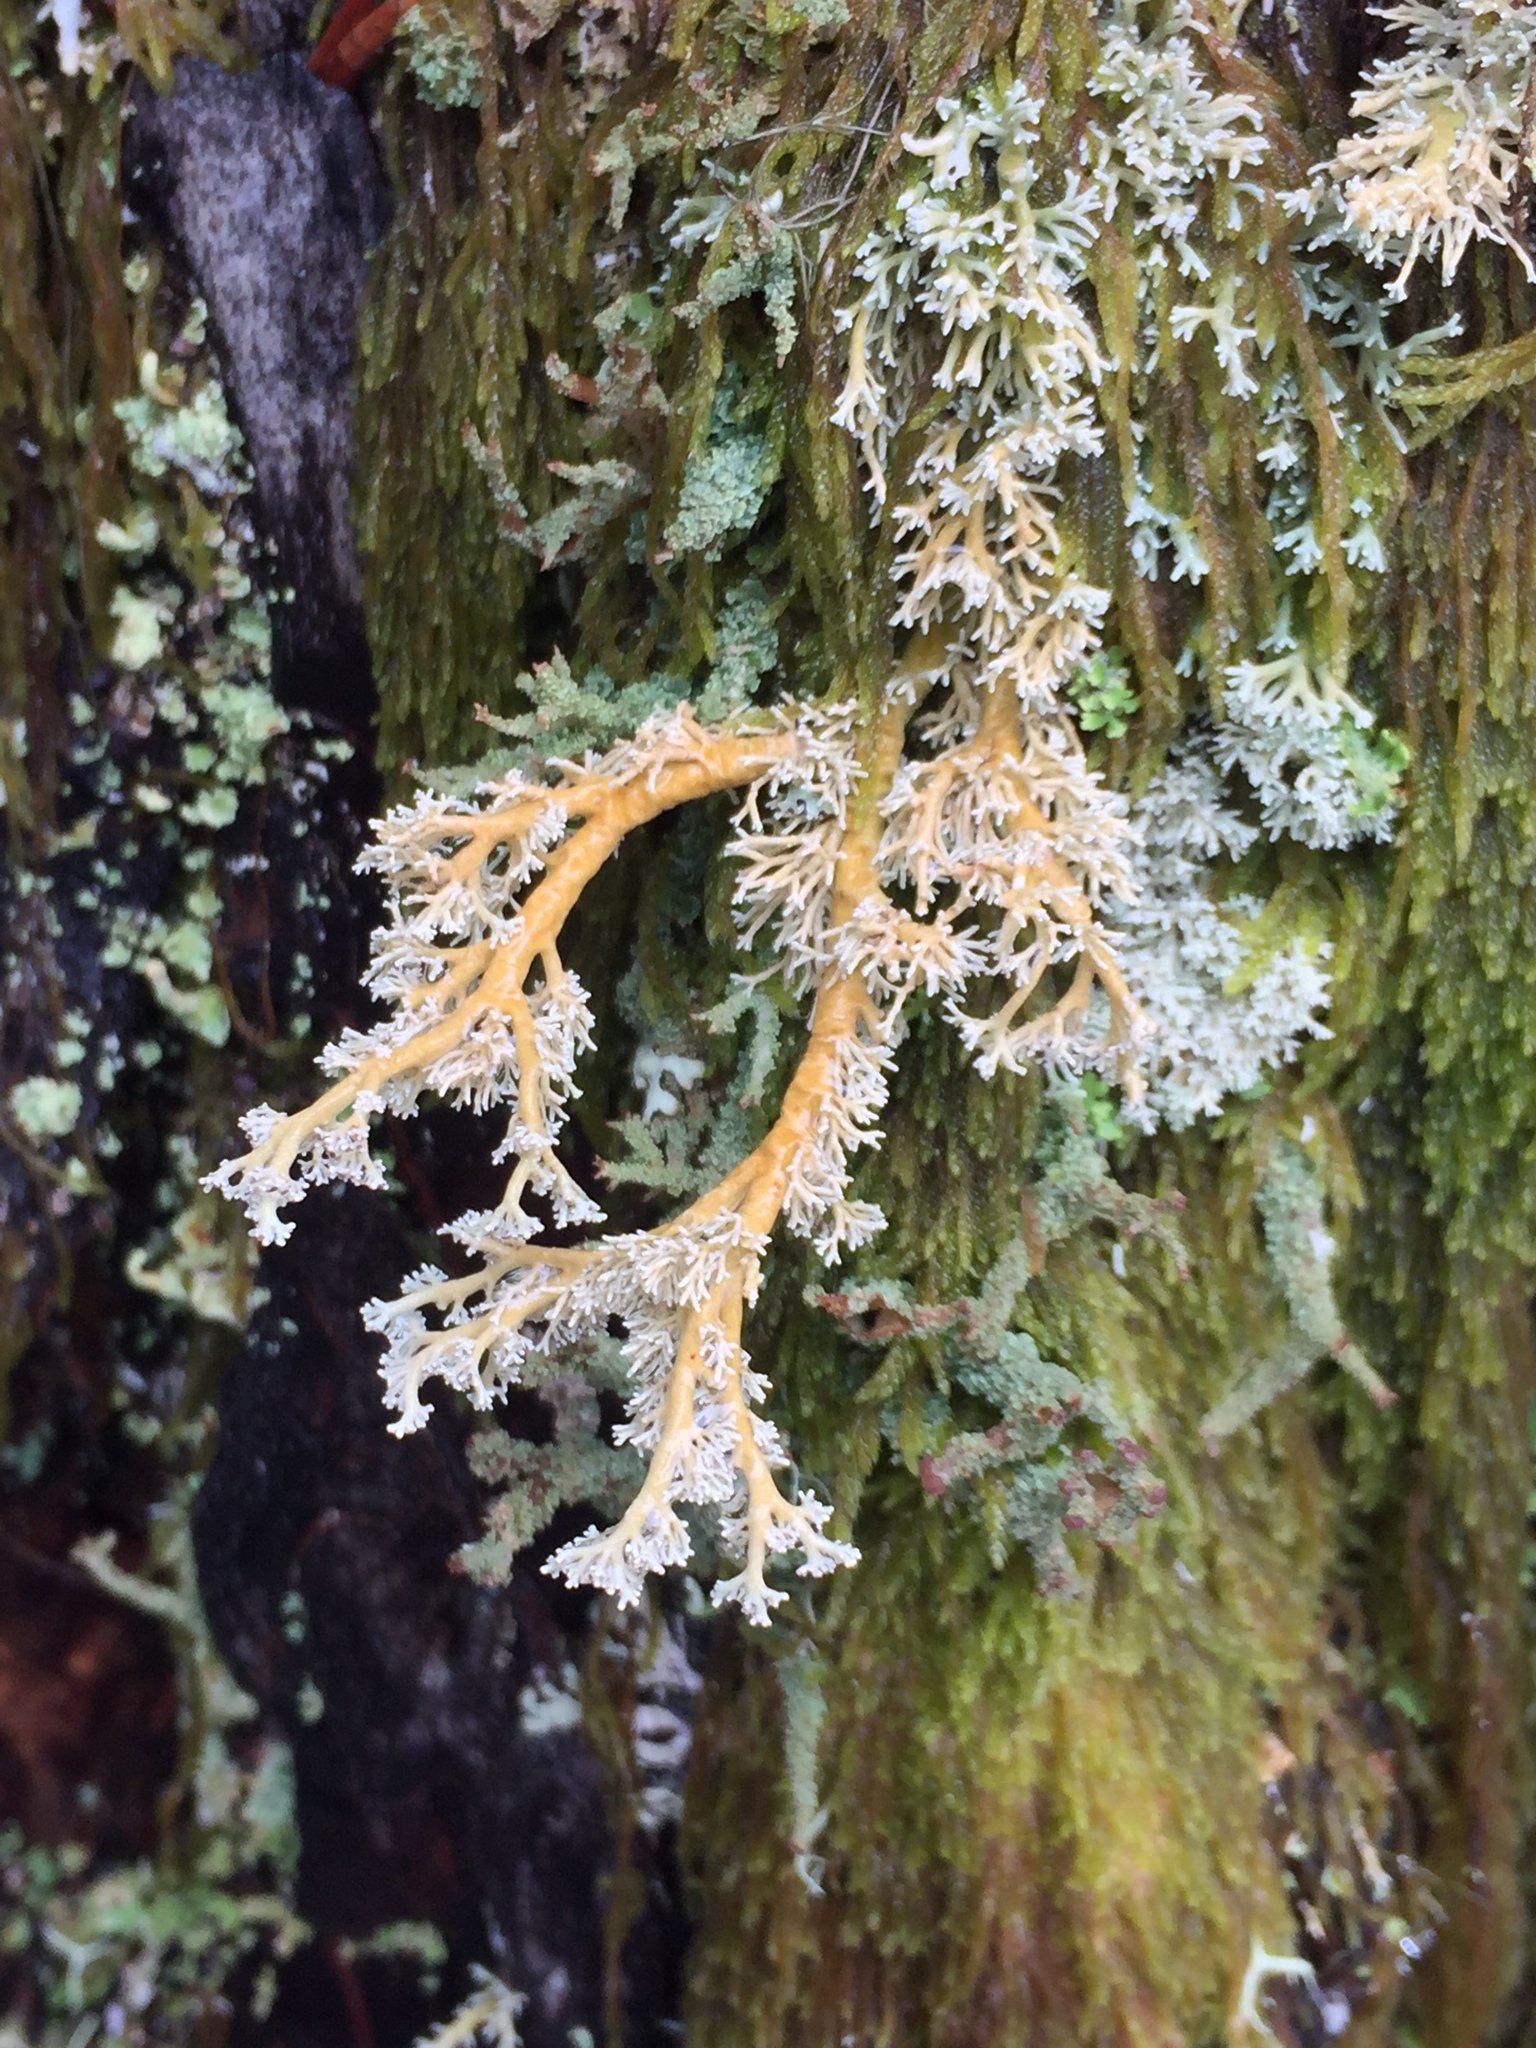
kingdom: Fungi
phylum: Ascomycota
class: Lecanoromycetes
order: Lecanorales
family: Sphaerophoraceae
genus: Sphaerophorus
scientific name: Sphaerophorus globosus
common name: Globe ball lichen
